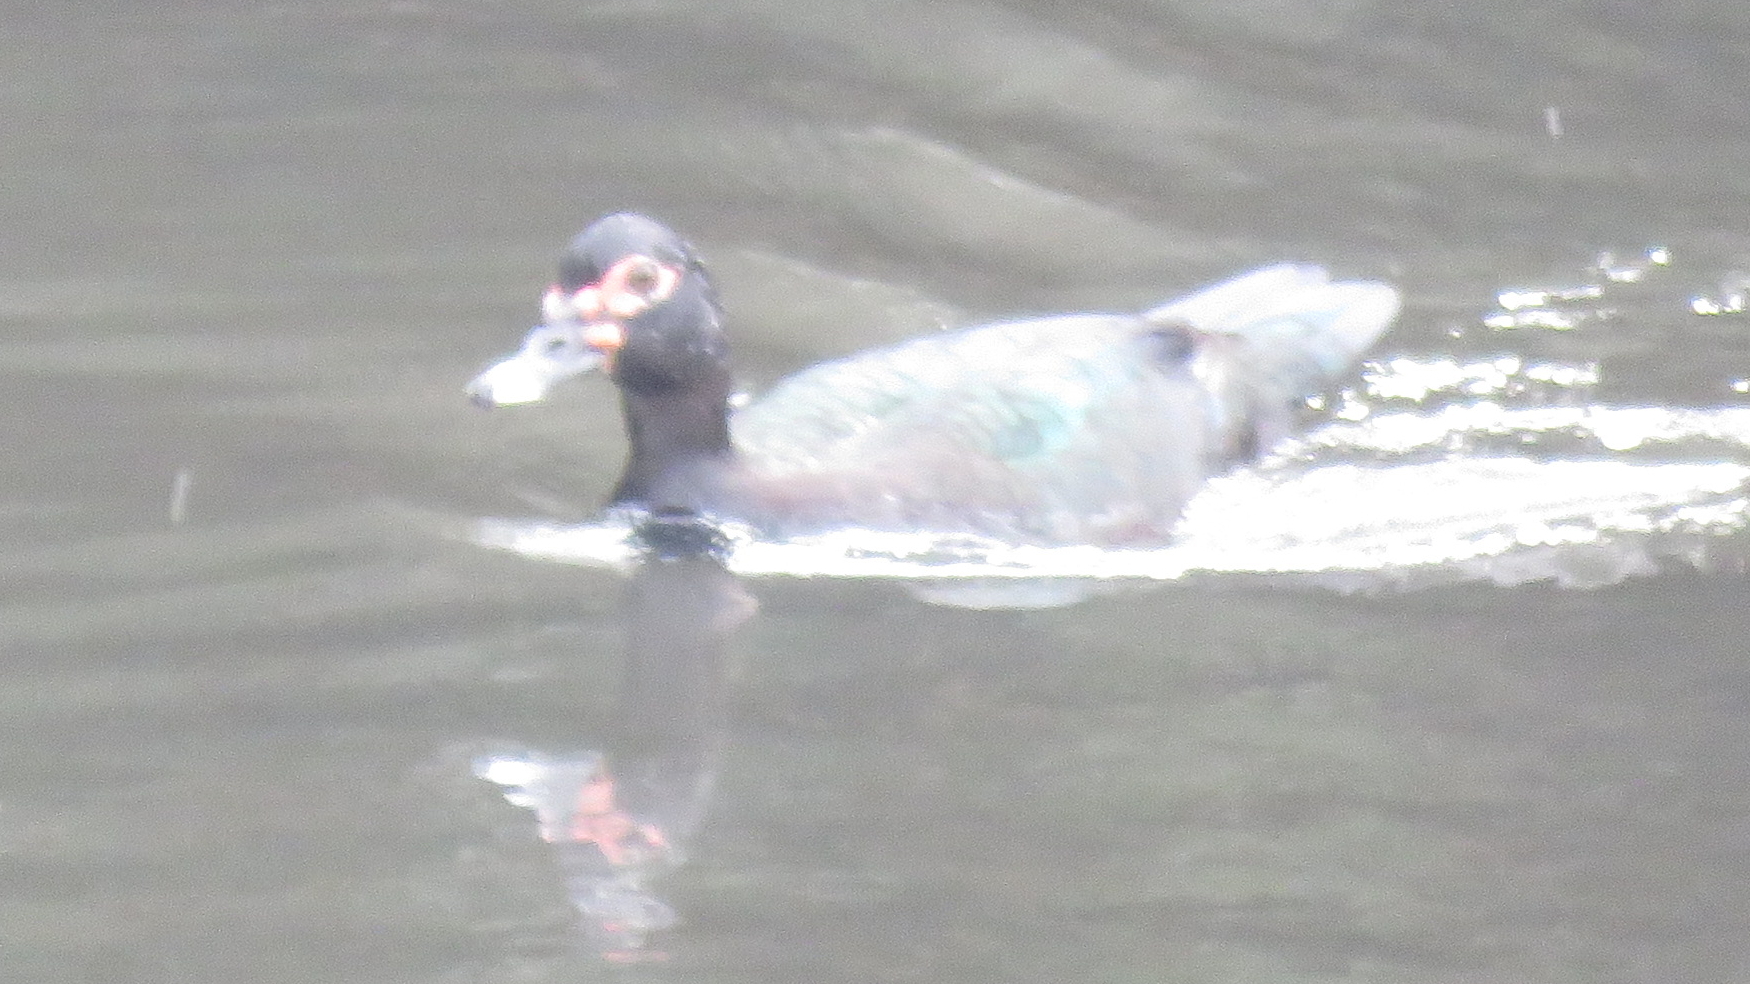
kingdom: Animalia
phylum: Chordata
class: Aves
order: Anseriformes
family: Anatidae
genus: Cairina
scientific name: Cairina moschata
